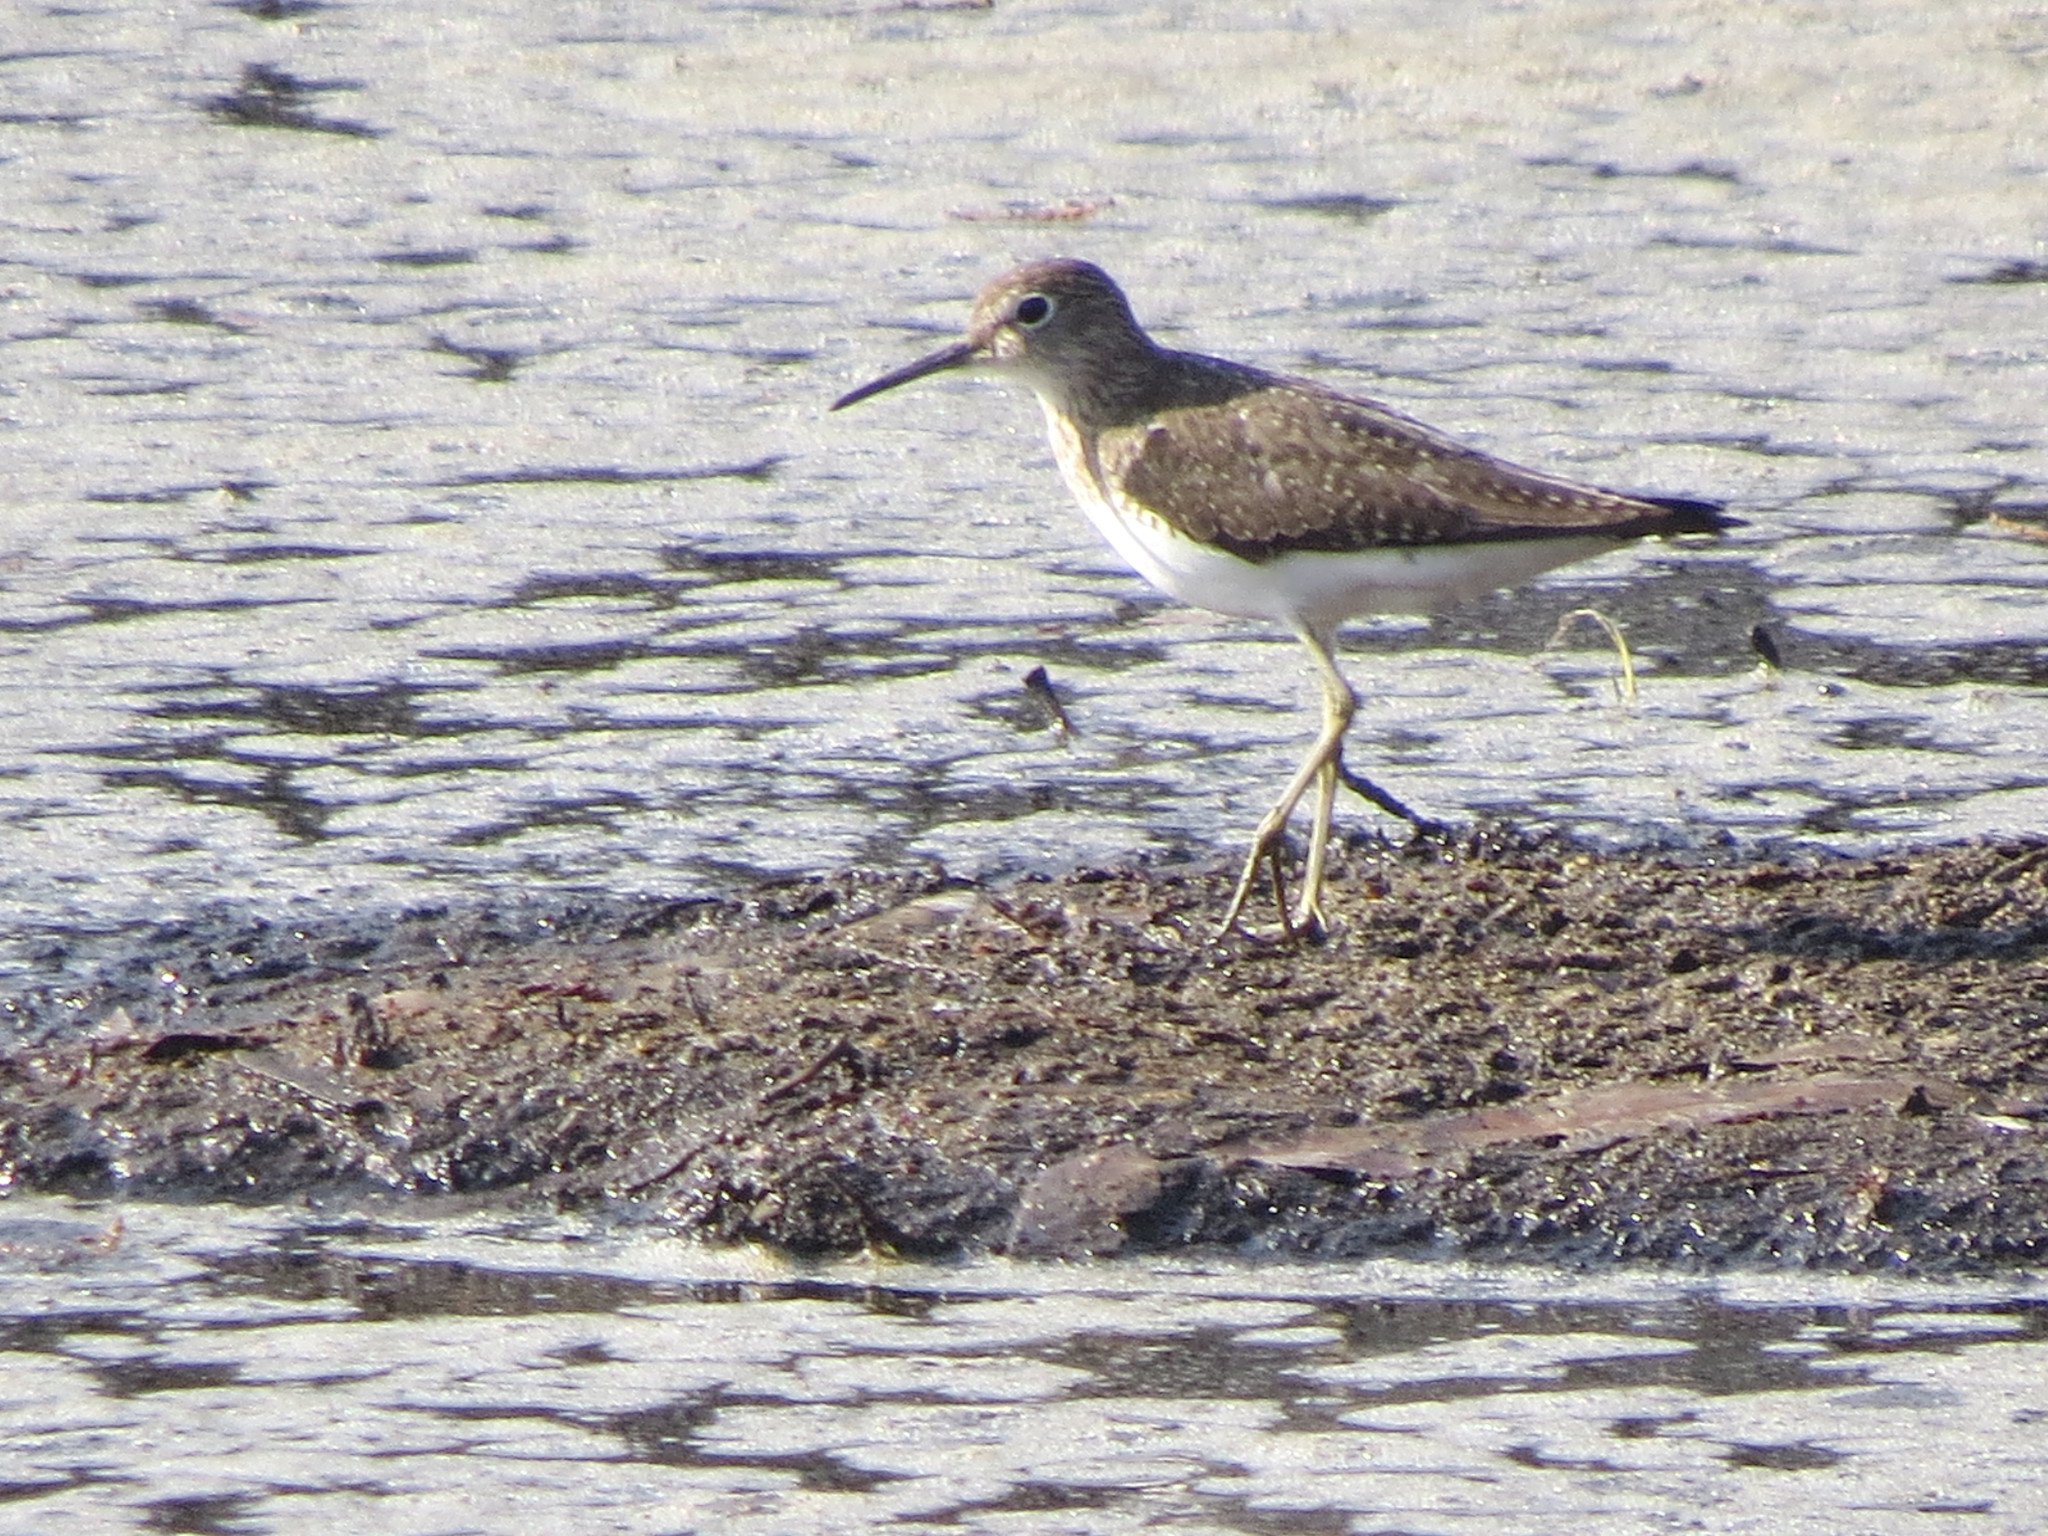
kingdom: Animalia
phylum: Chordata
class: Aves
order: Charadriiformes
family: Scolopacidae
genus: Tringa
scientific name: Tringa solitaria
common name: Solitary sandpiper
